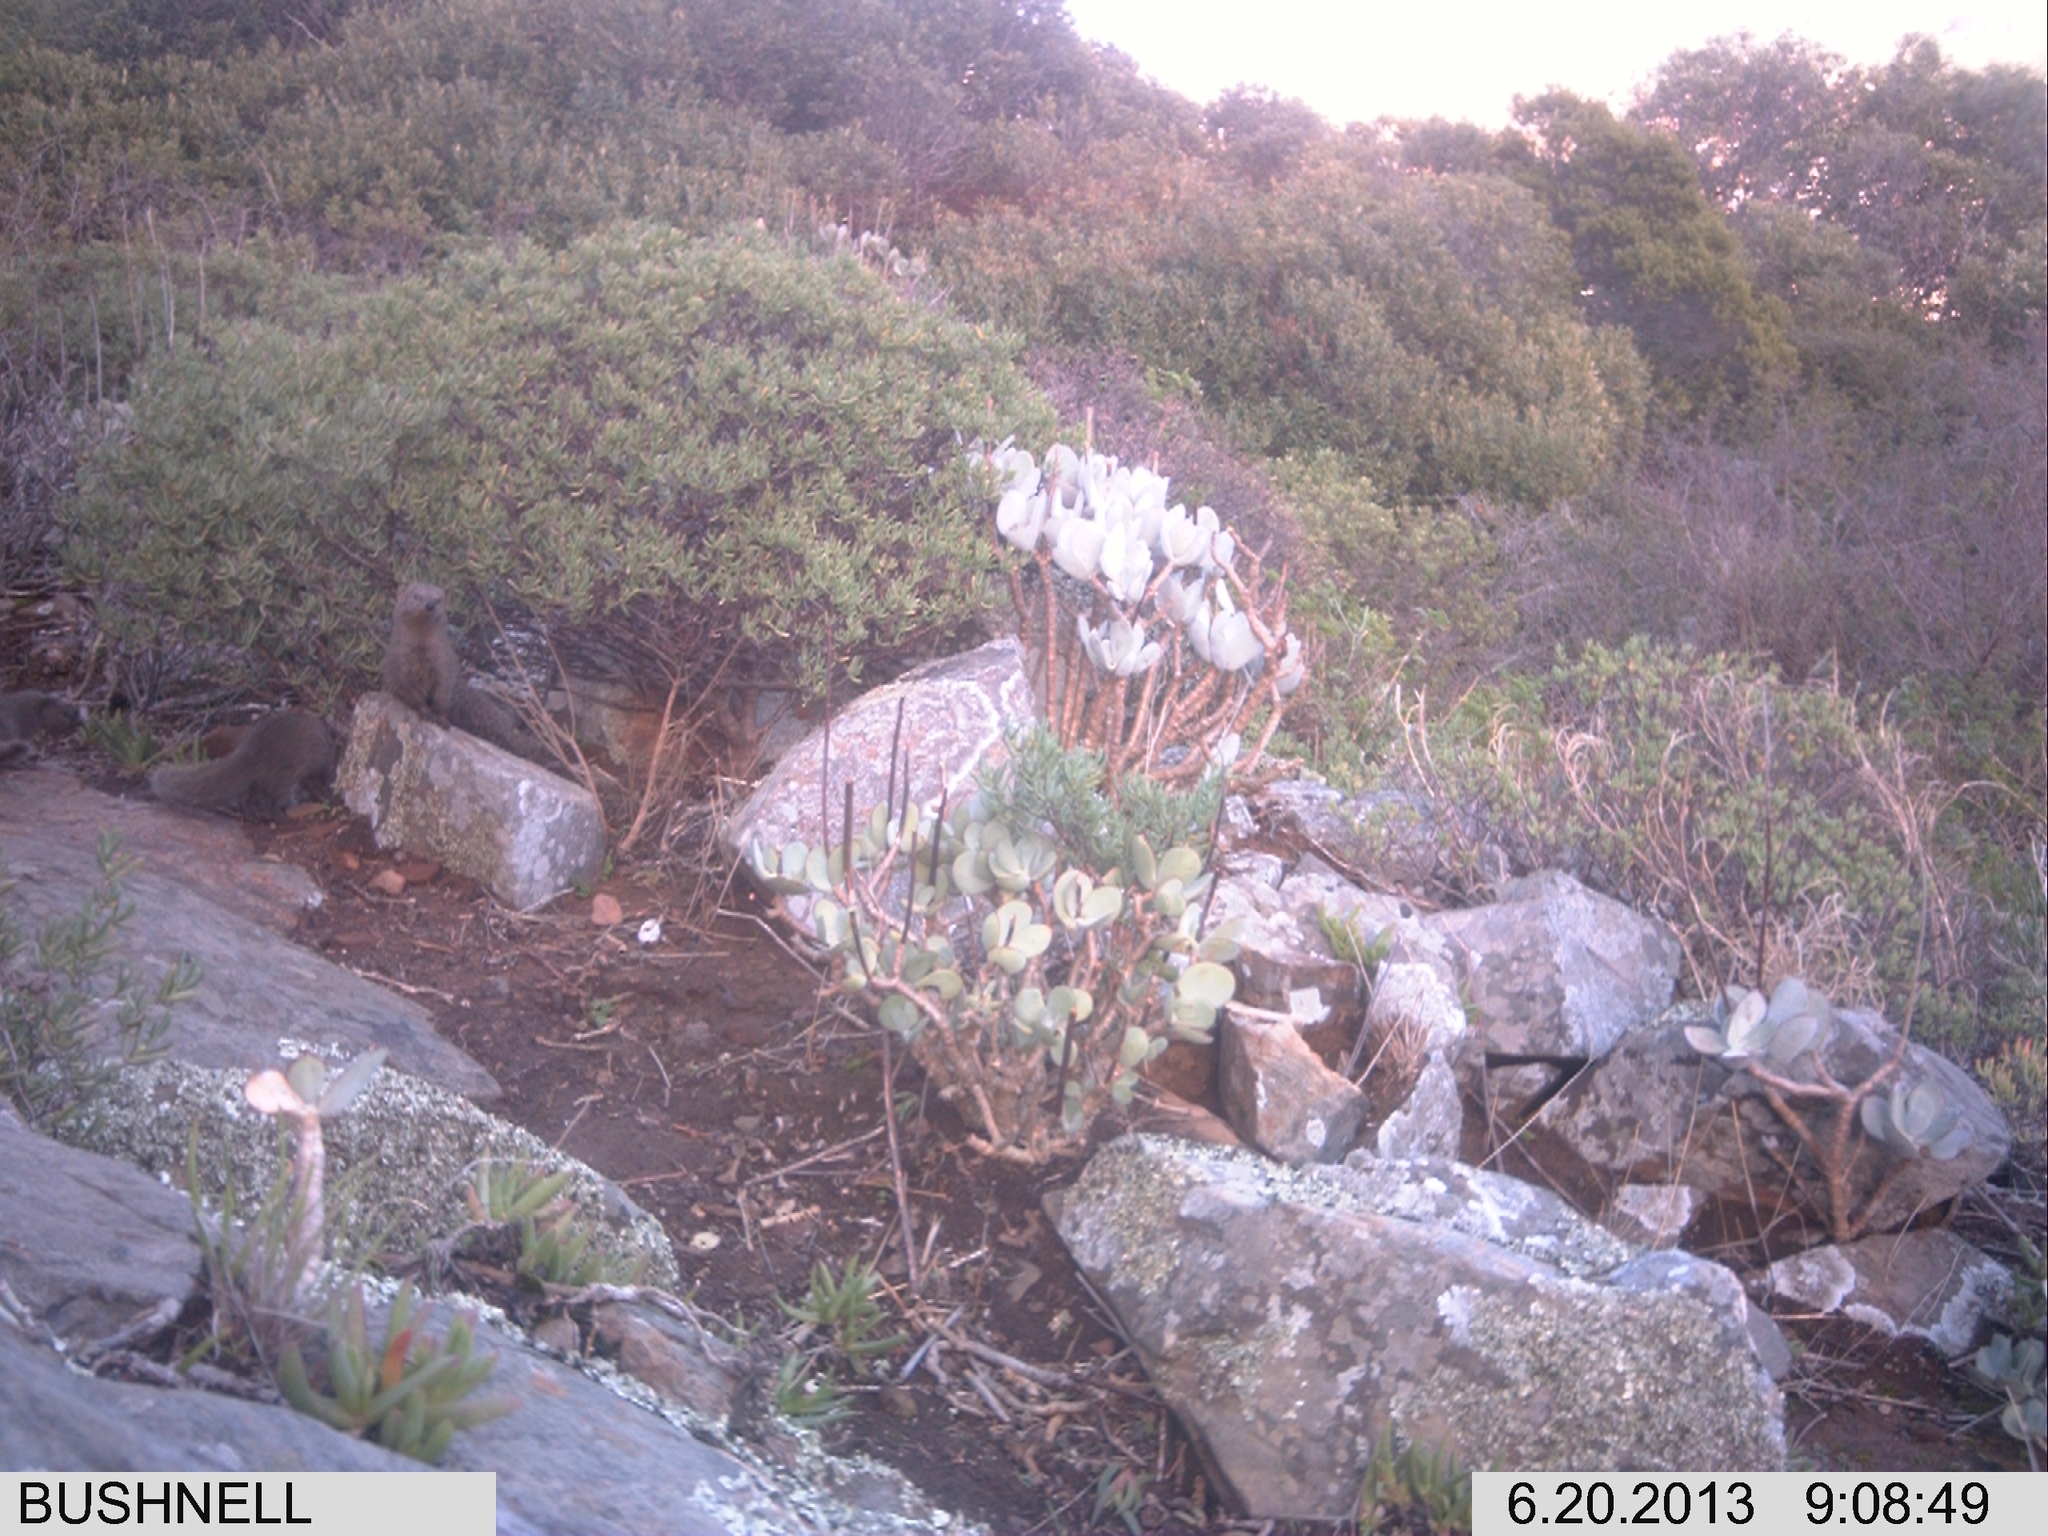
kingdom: Animalia
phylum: Chordata
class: Mammalia
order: Carnivora
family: Herpestidae
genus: Galerella
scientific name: Galerella pulverulenta
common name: Cape gray mongoose
